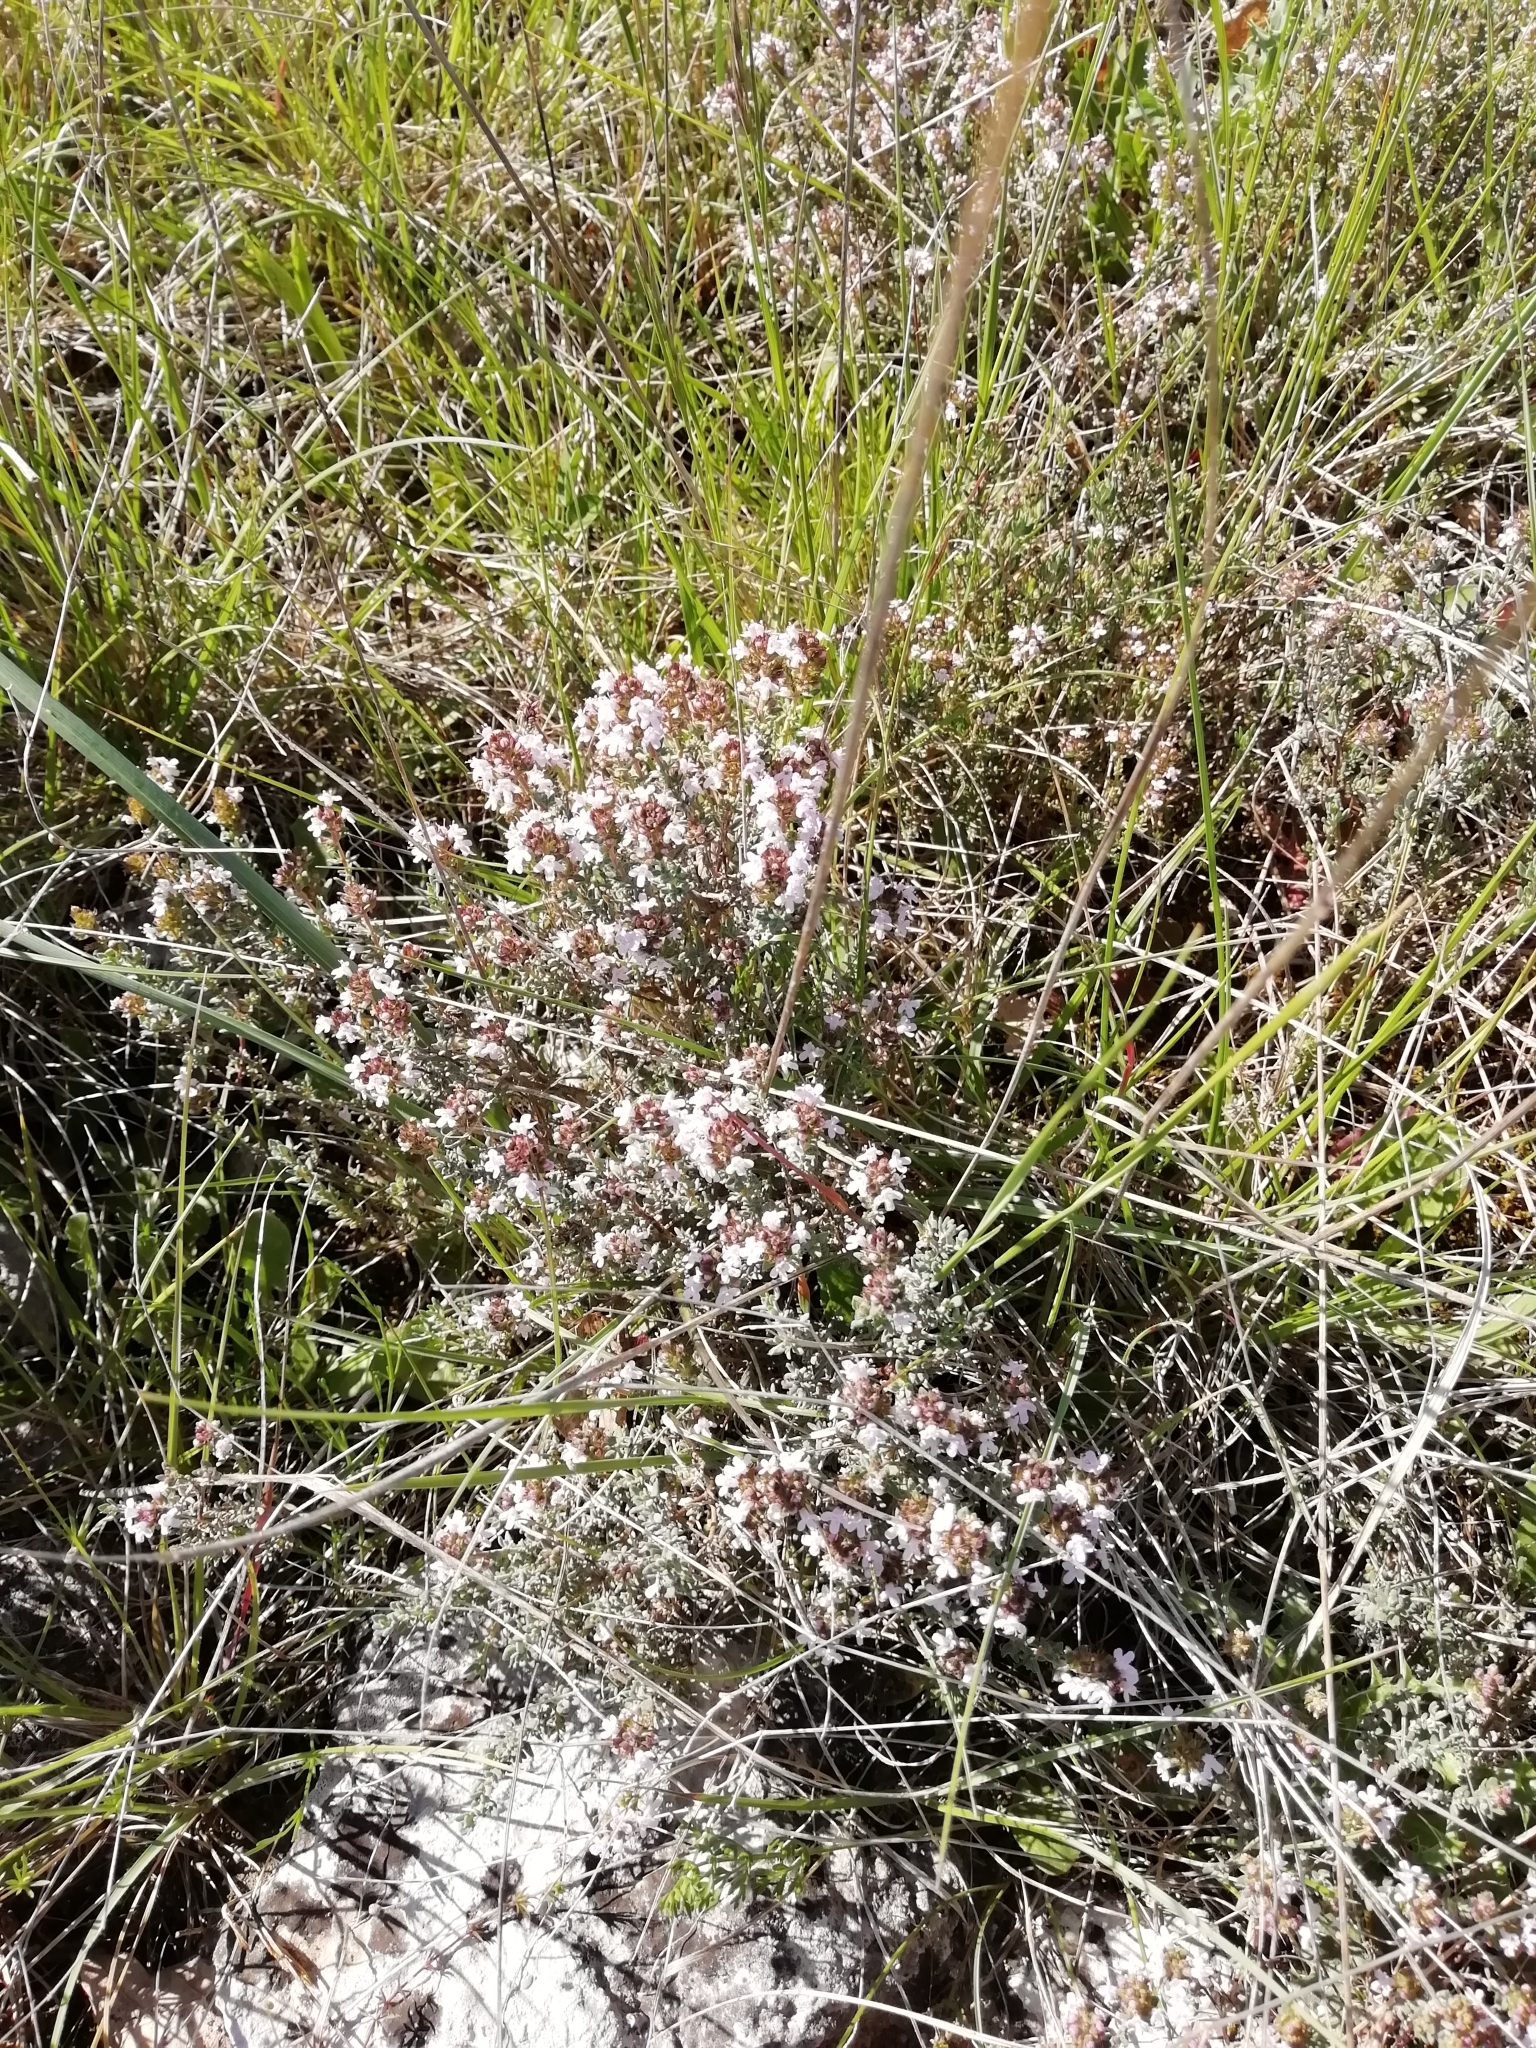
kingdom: Plantae
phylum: Tracheophyta
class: Magnoliopsida
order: Lamiales
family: Lamiaceae
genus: Thymus
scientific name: Thymus vulgaris
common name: Garden thyme
